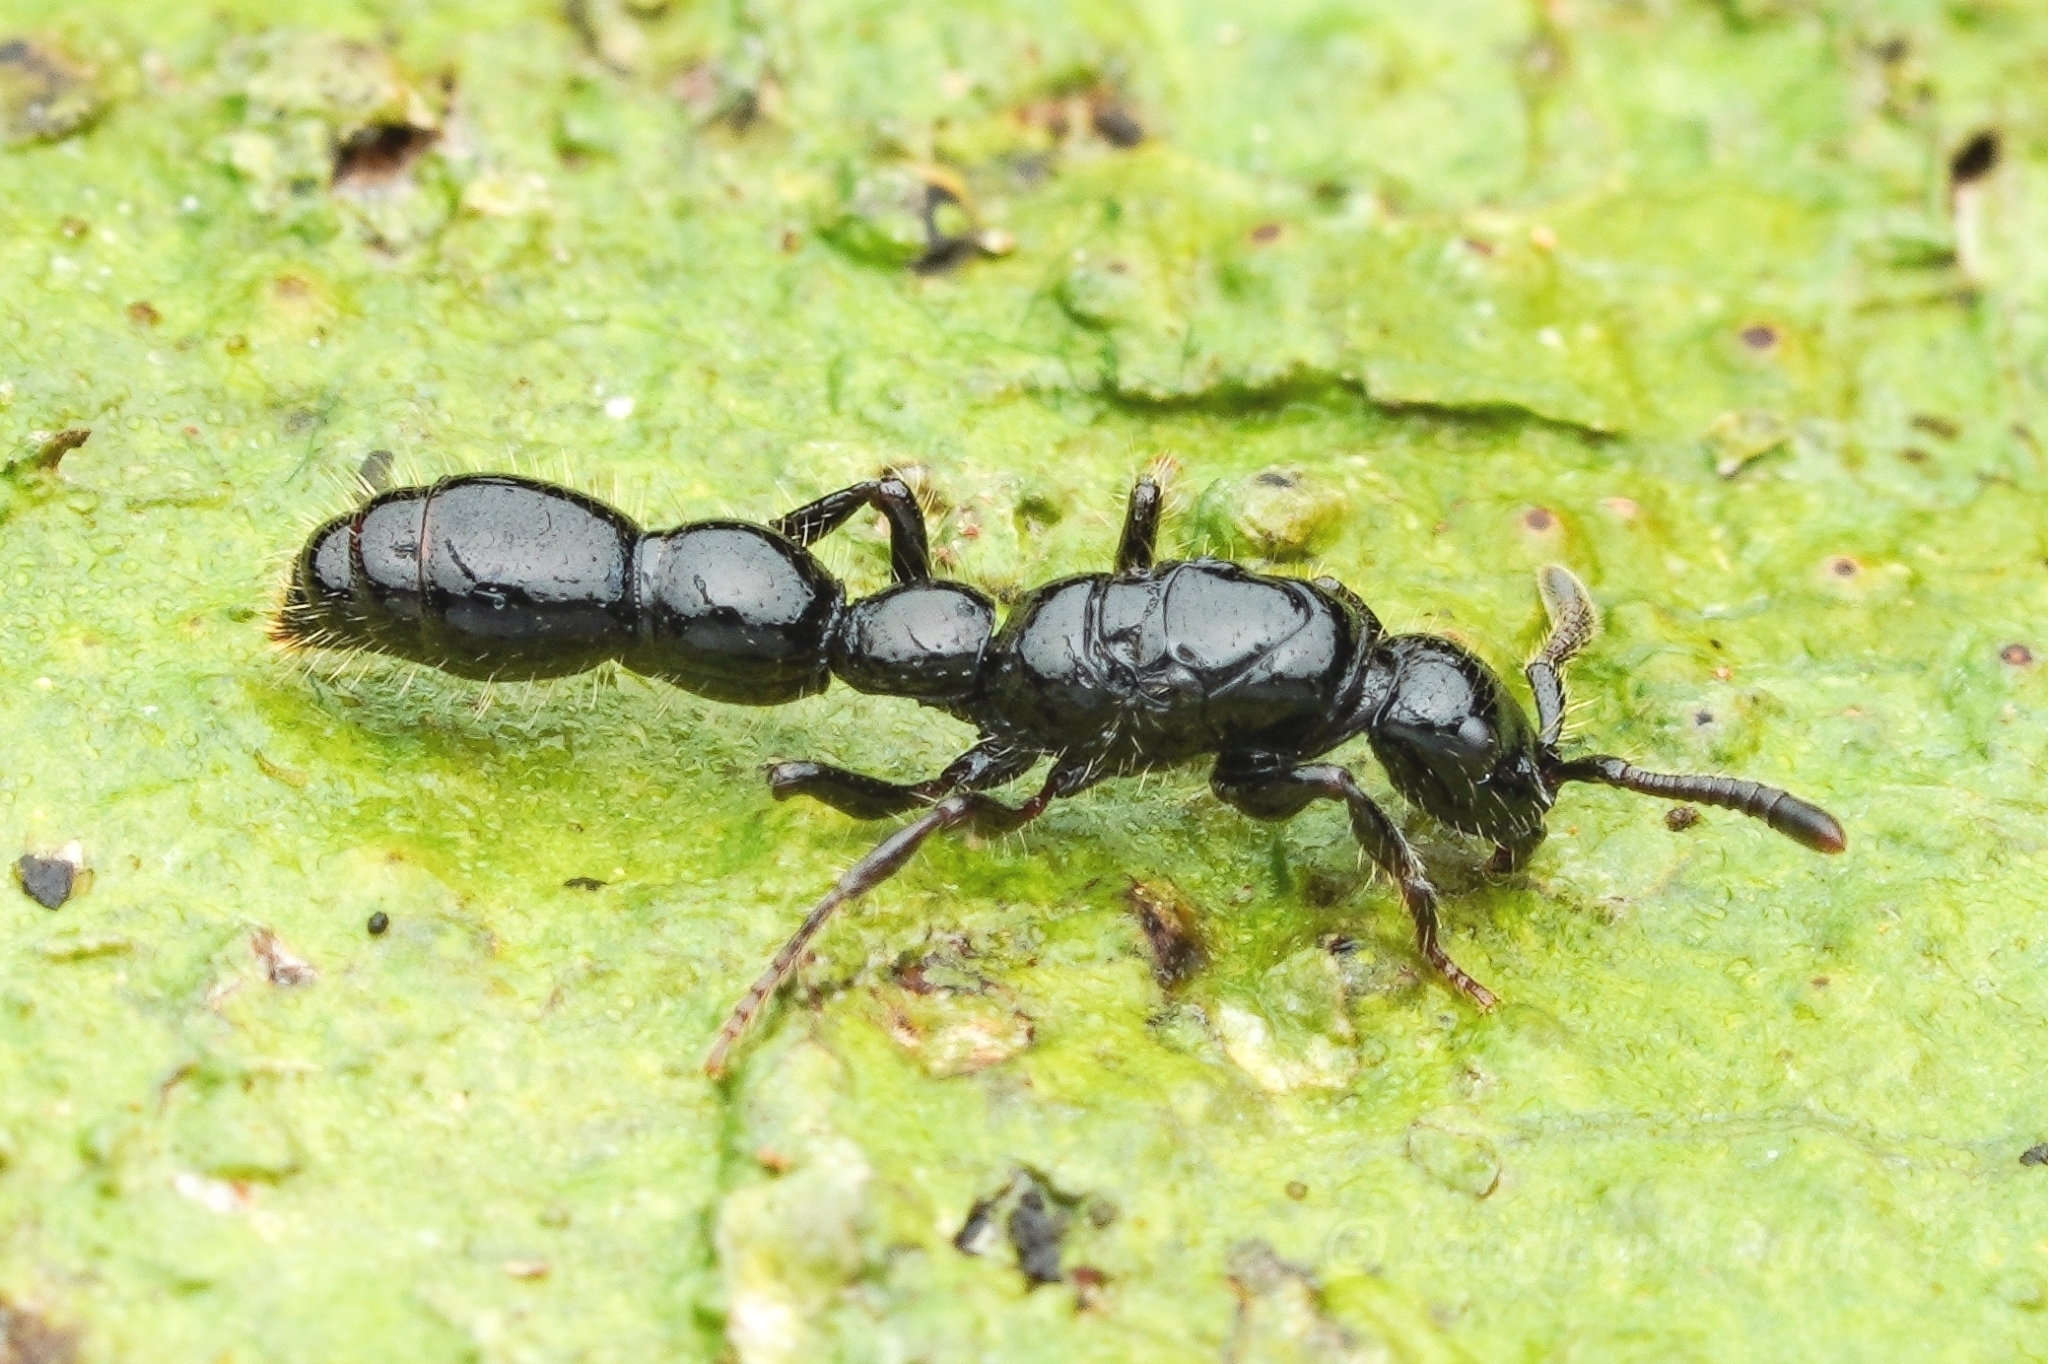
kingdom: Animalia
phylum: Arthropoda
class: Insecta
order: Hymenoptera
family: Formicidae
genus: Cerapachys
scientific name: Cerapachys antennatus
